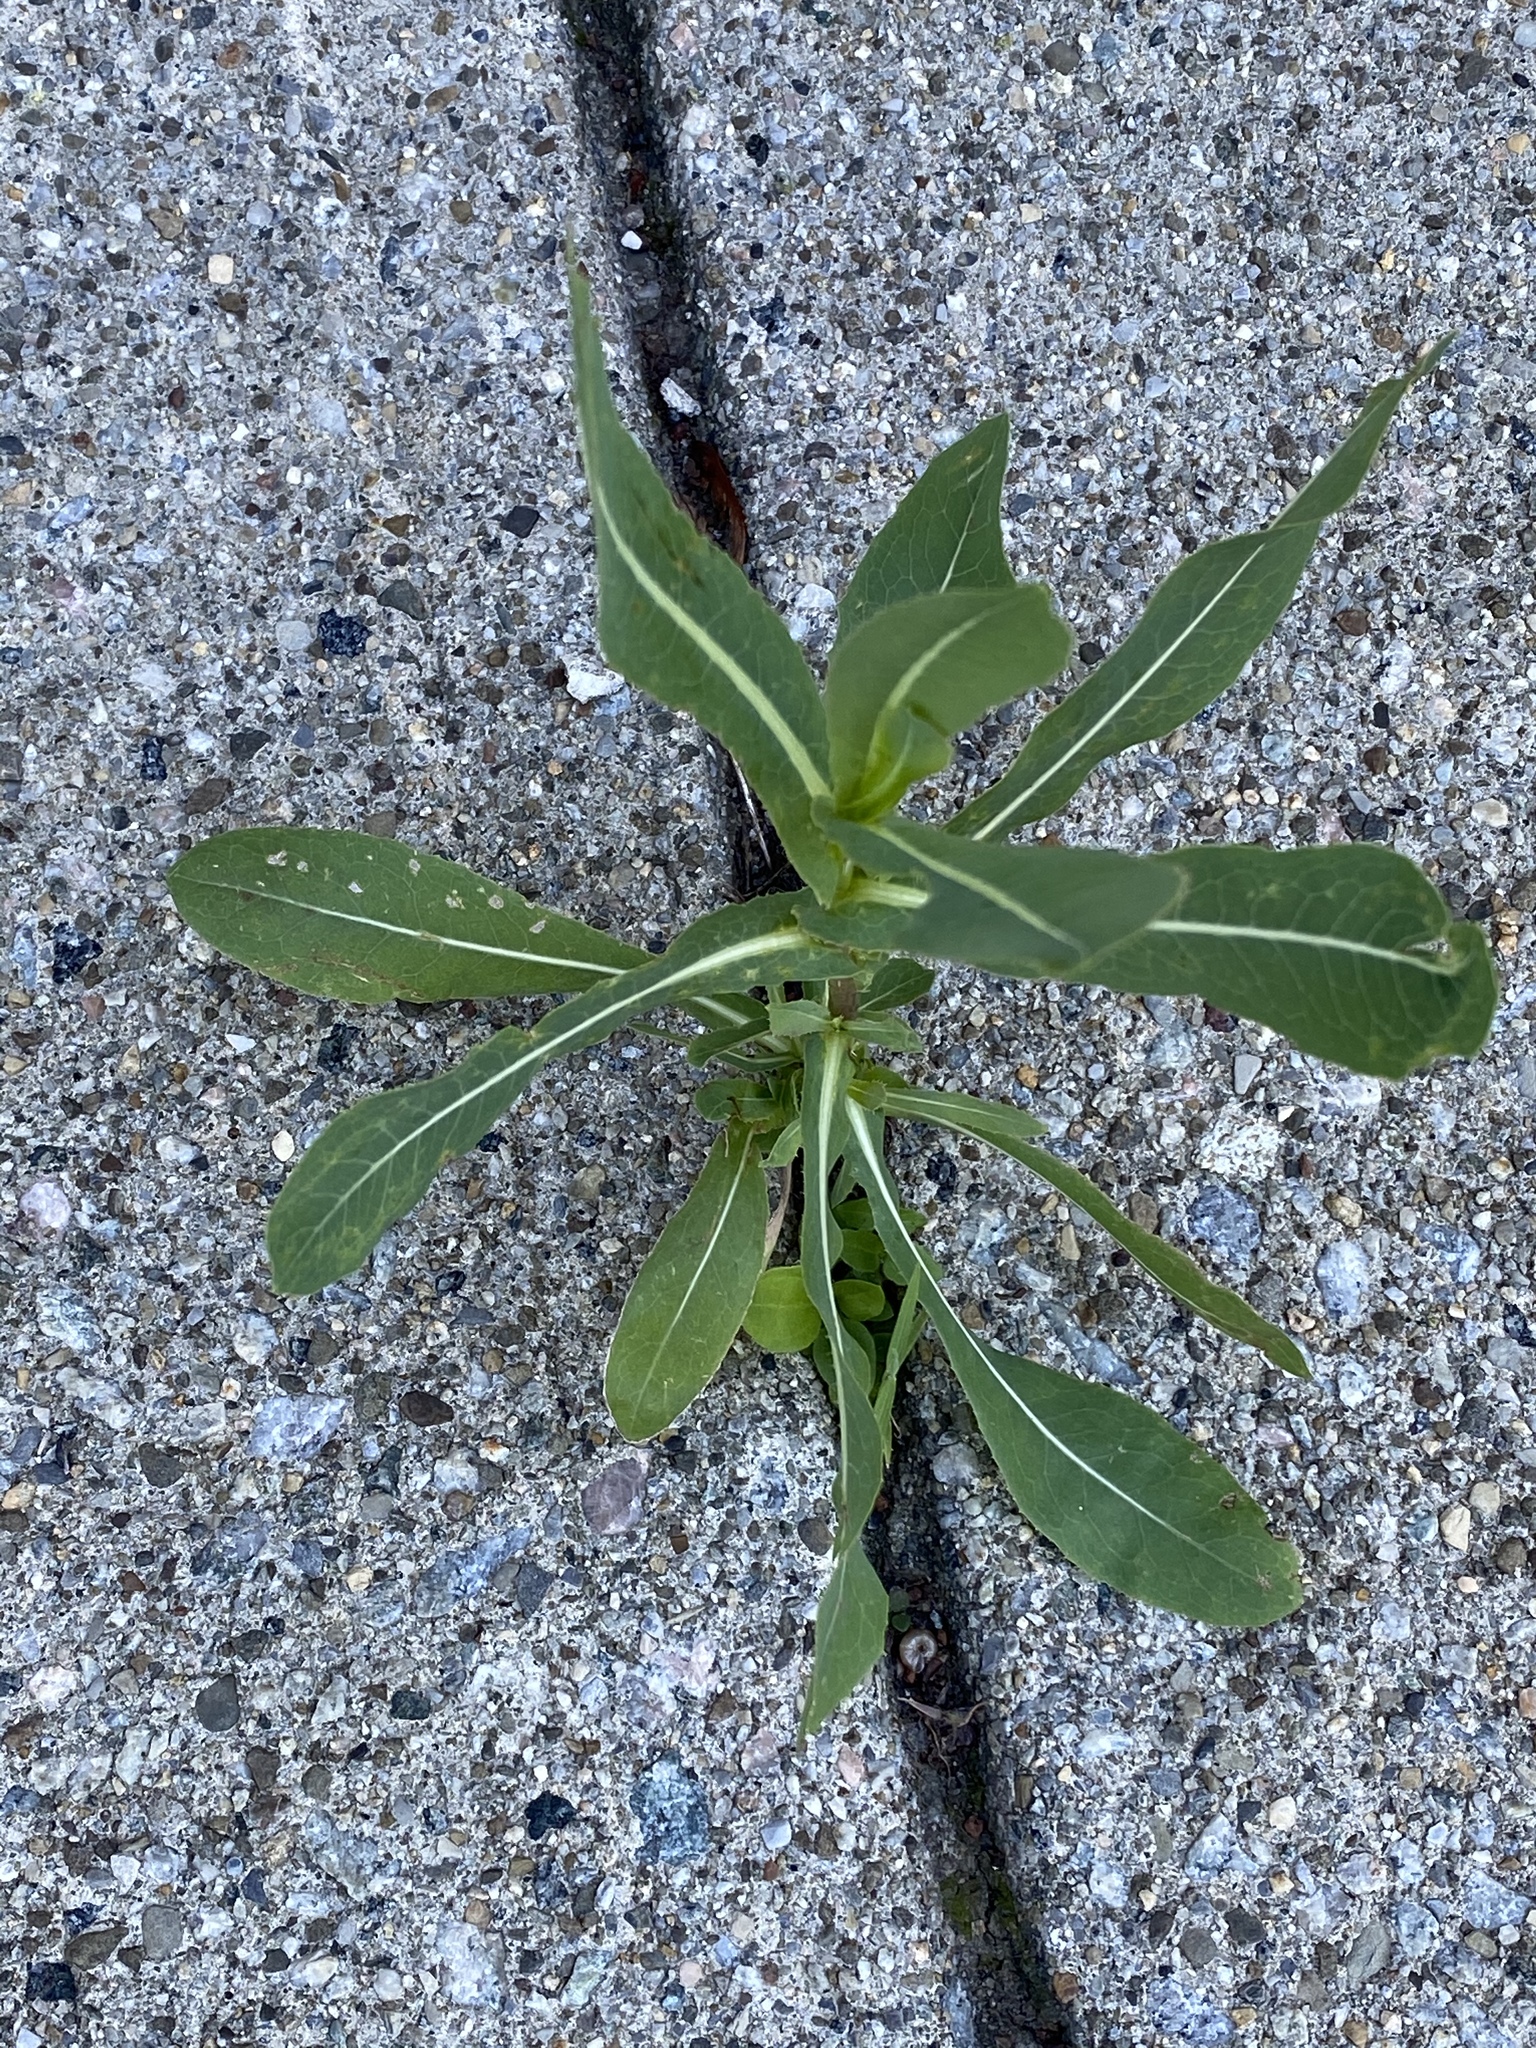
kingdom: Plantae
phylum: Tracheophyta
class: Magnoliopsida
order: Asterales
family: Asteraceae
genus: Lactuca
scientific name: Lactuca serriola
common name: Prickly lettuce
